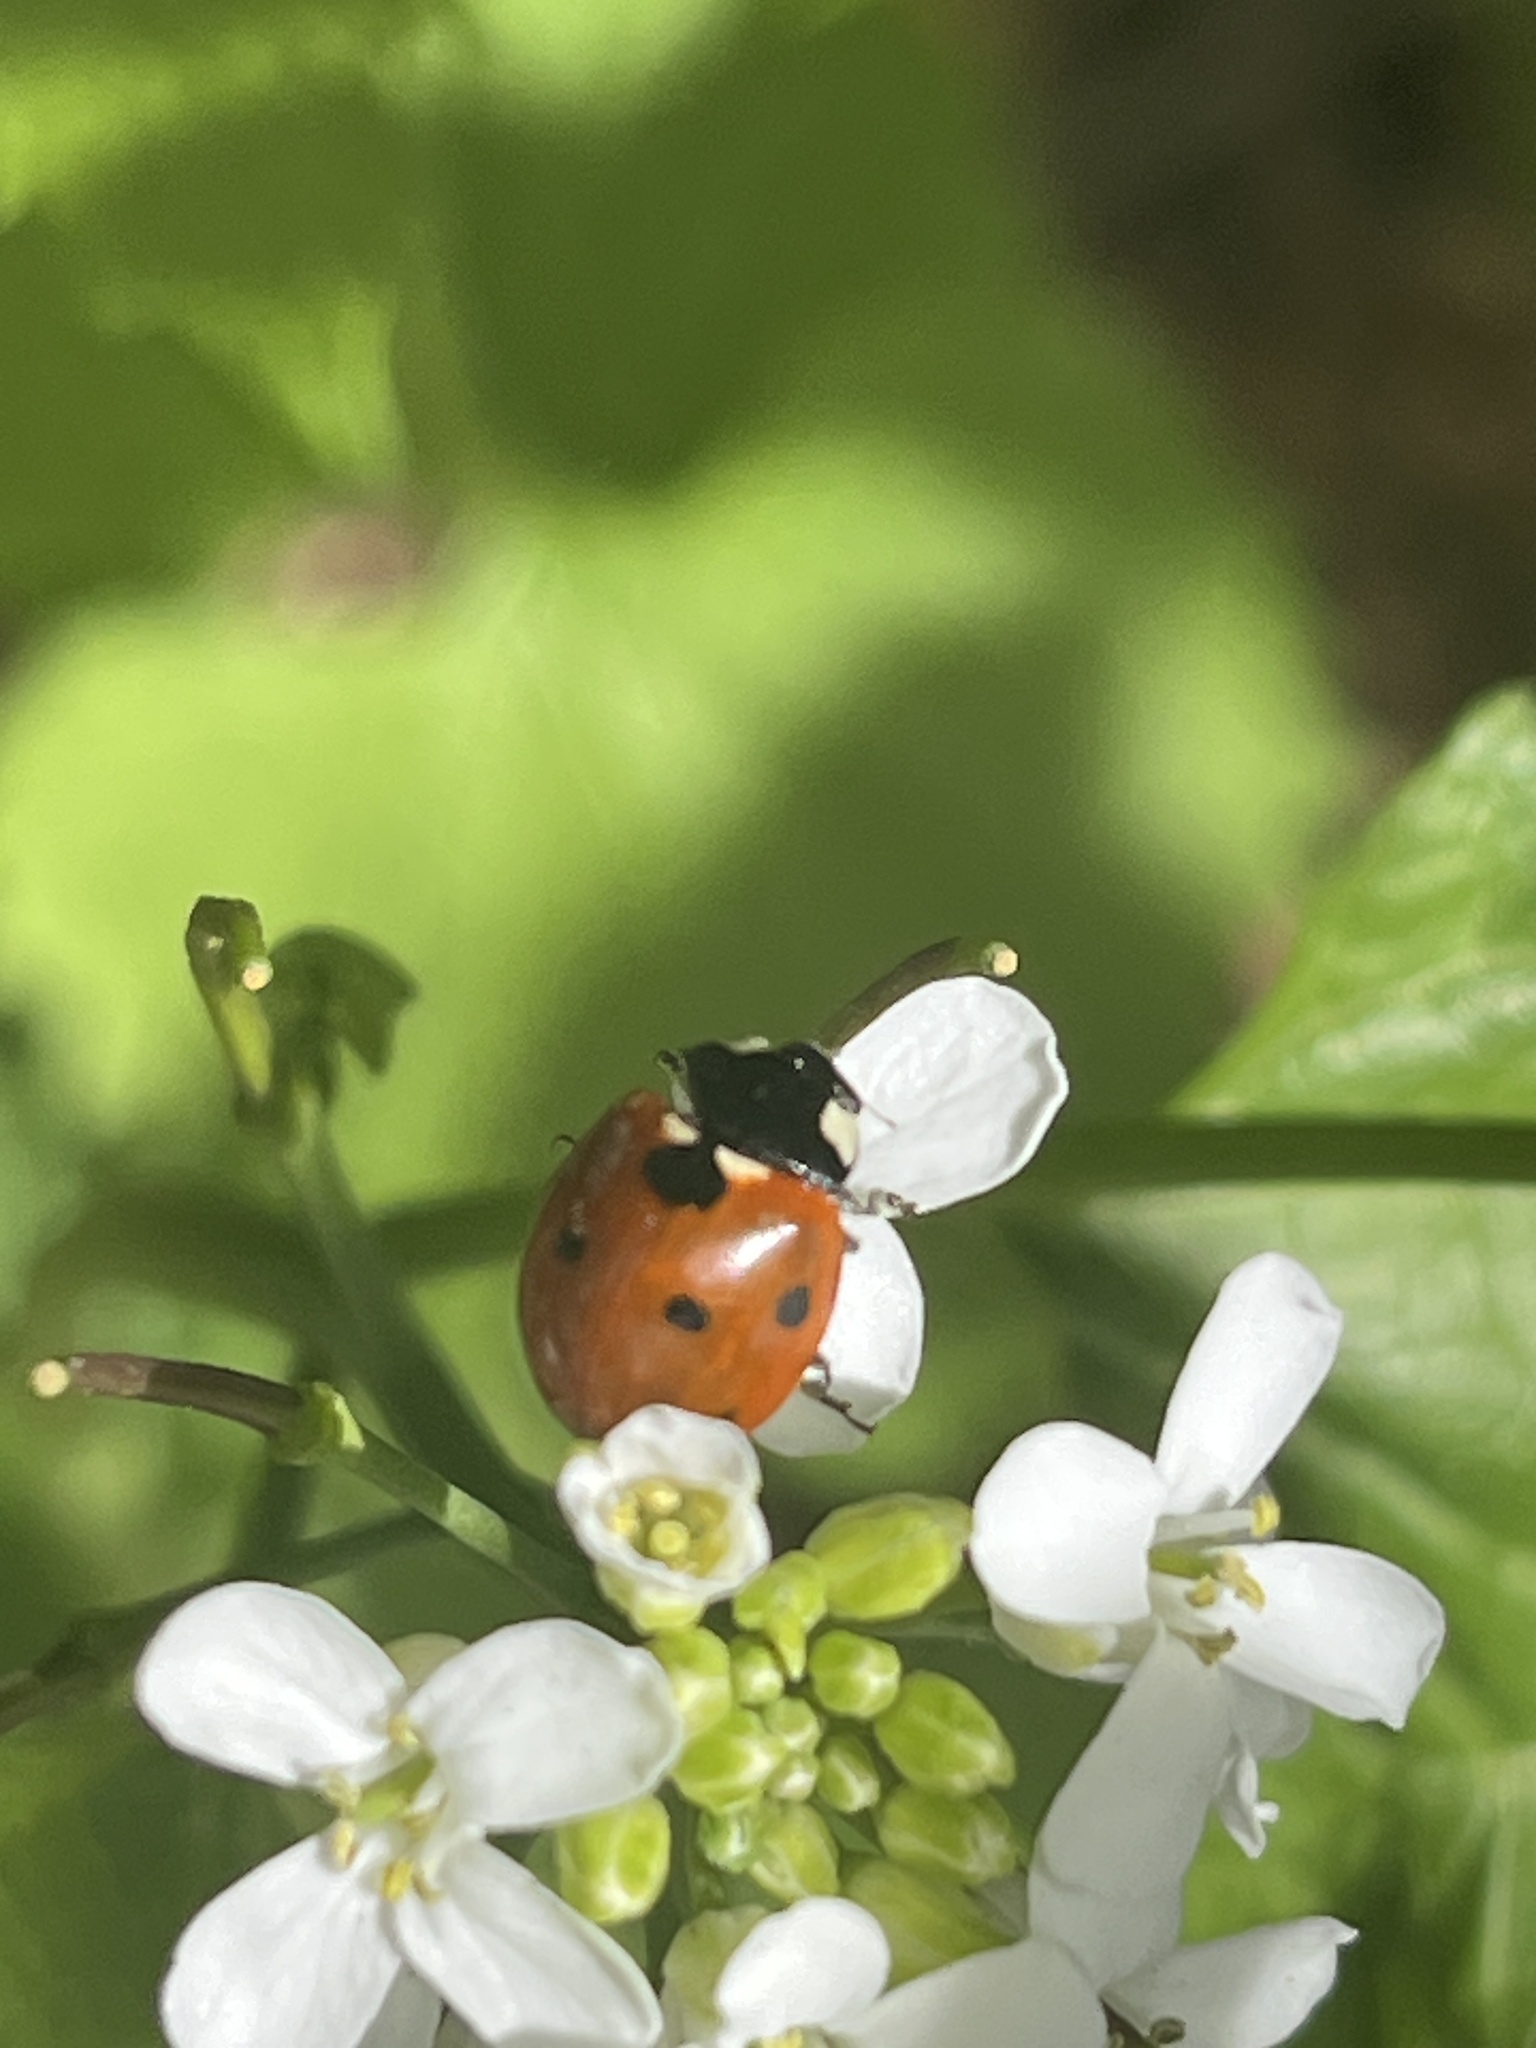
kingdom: Animalia
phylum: Arthropoda
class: Insecta
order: Coleoptera
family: Coccinellidae
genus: Coccinella
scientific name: Coccinella septempunctata
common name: Sevenspotted lady beetle
